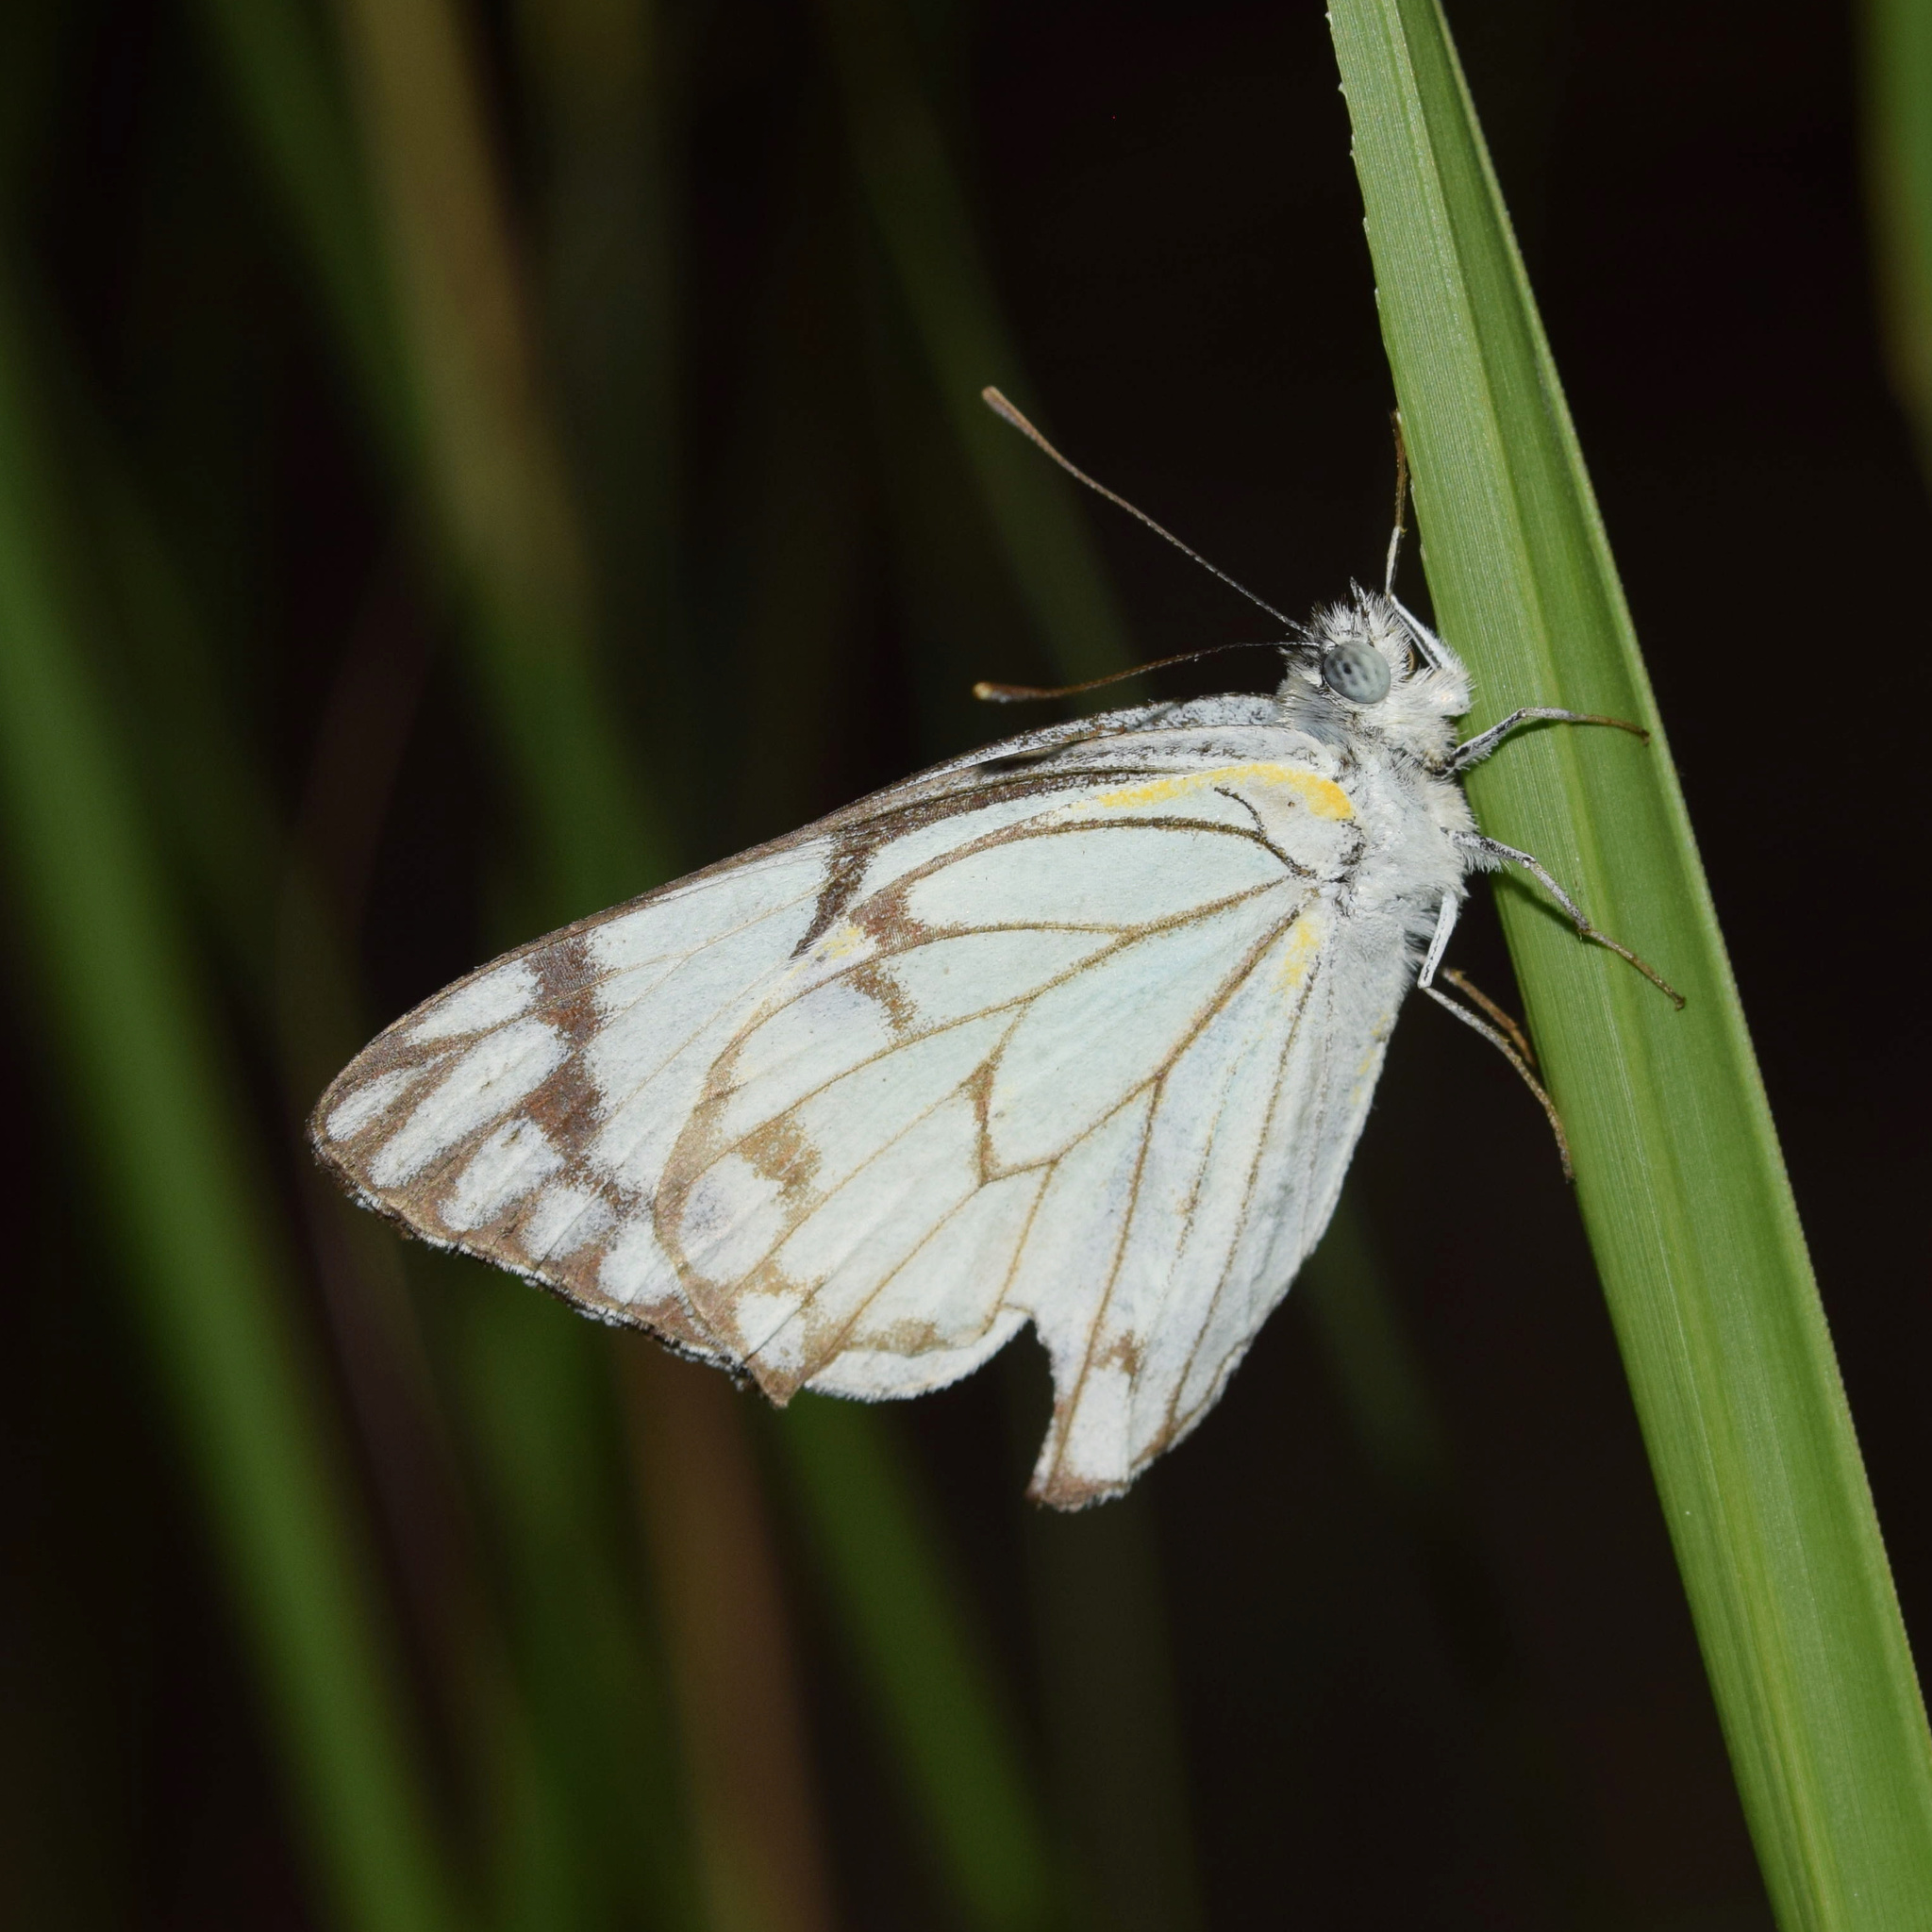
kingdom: Animalia
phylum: Arthropoda
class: Insecta
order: Lepidoptera
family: Pieridae
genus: Belenois
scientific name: Belenois aurota
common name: Brown-veined white
